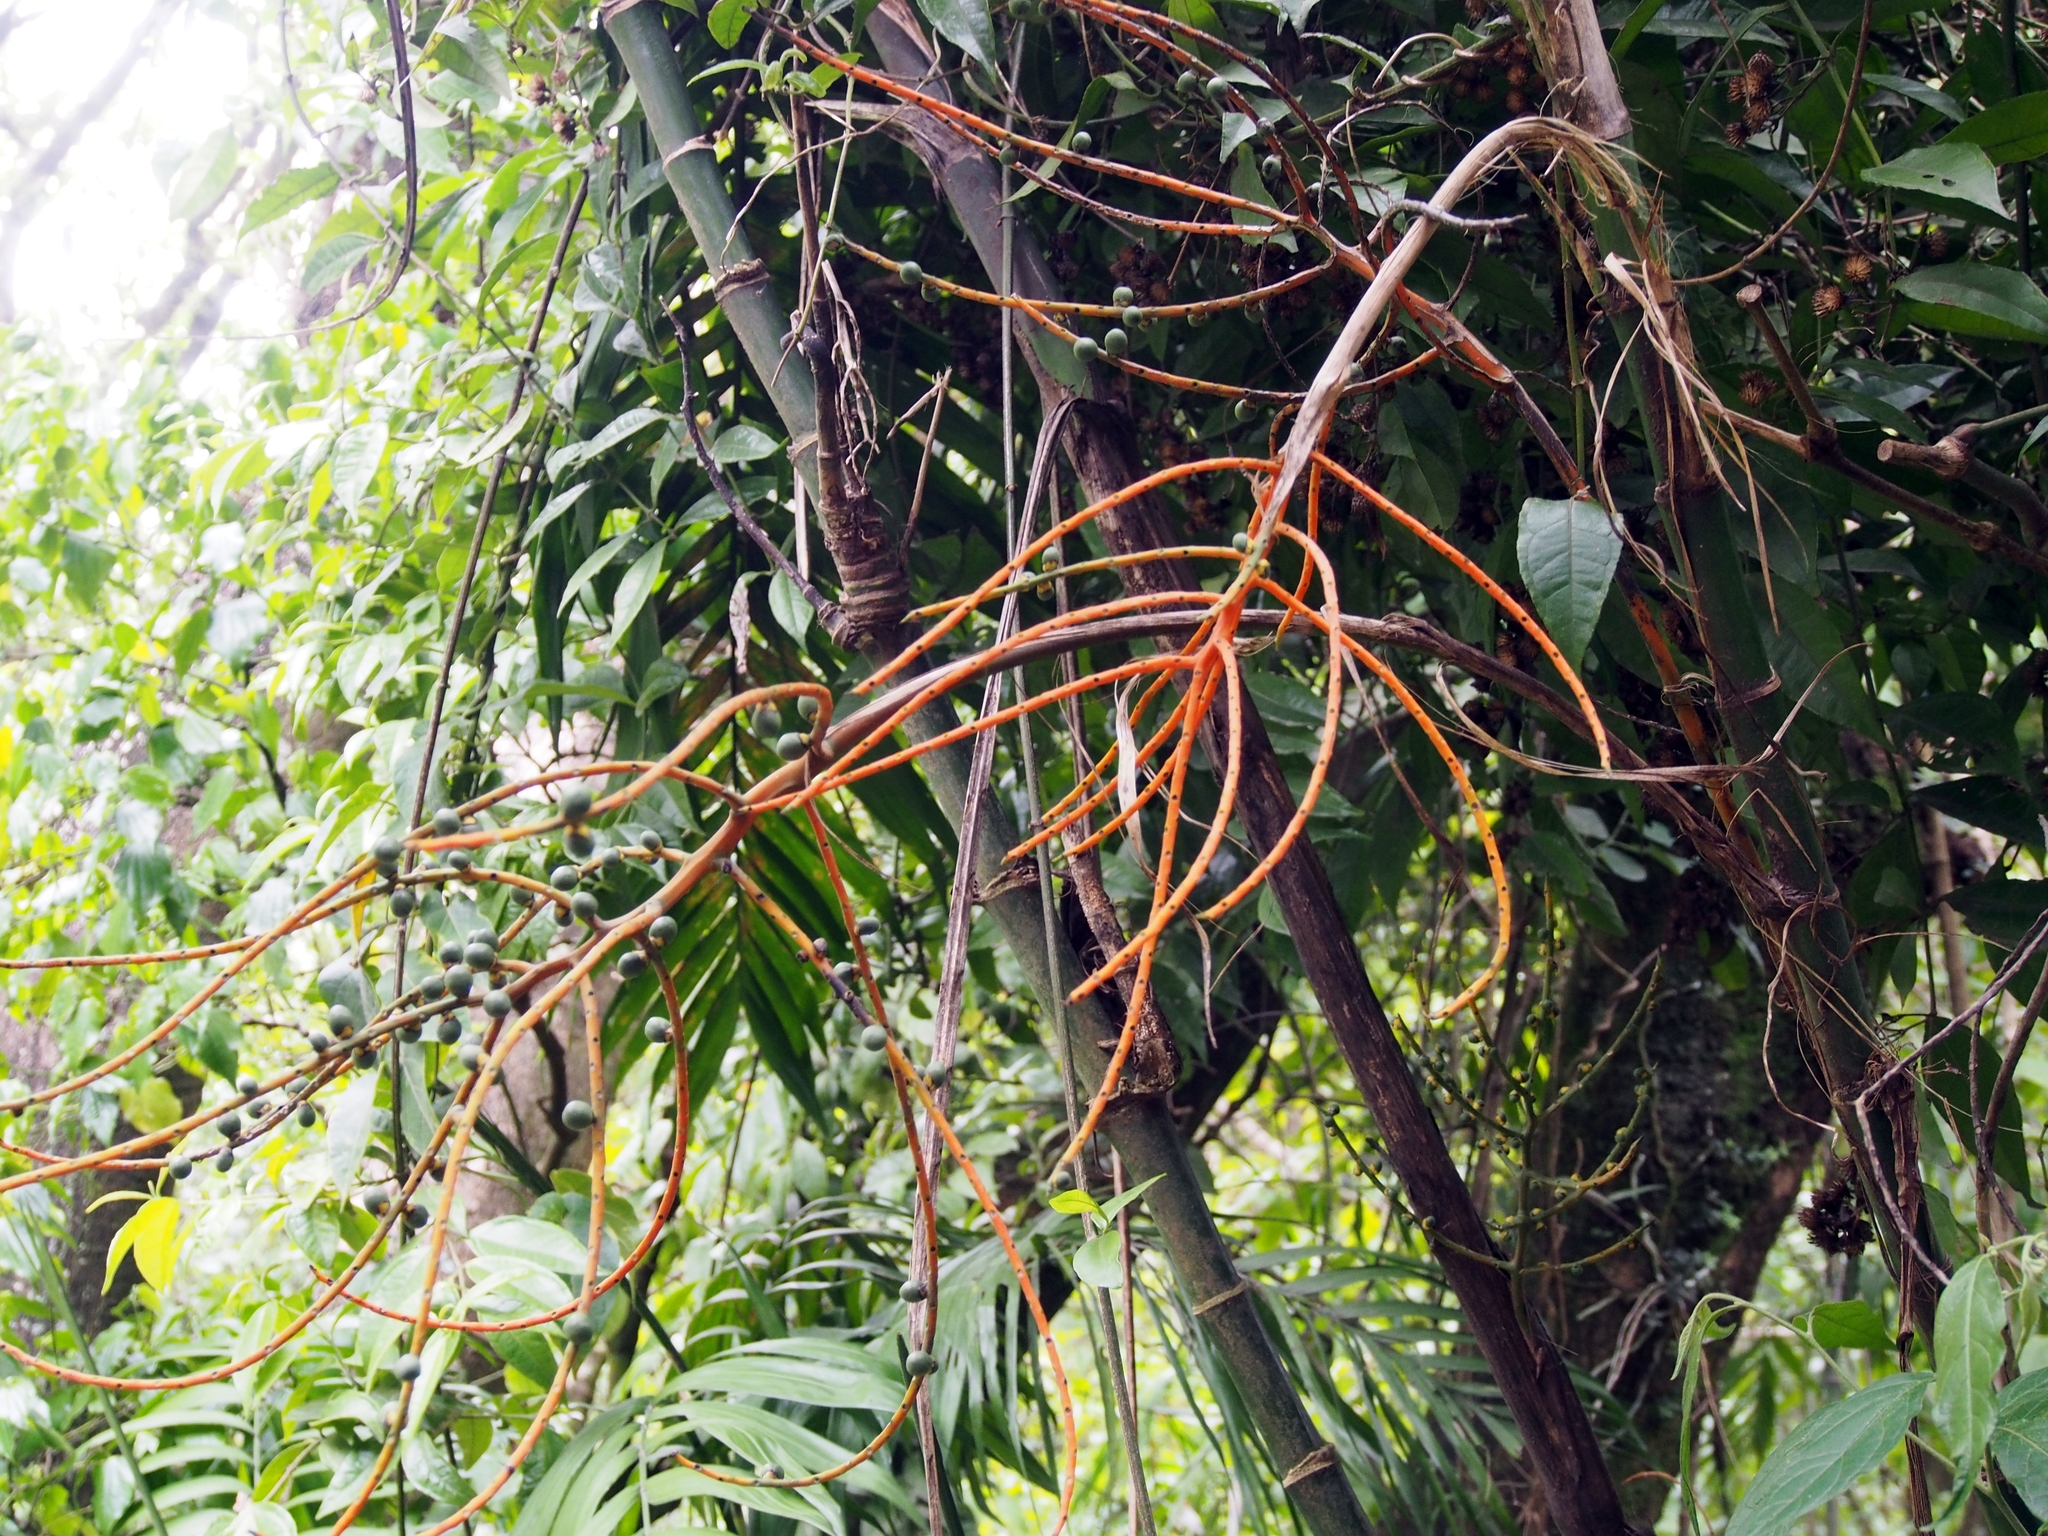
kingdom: Plantae
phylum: Tracheophyta
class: Liliopsida
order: Arecales
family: Arecaceae
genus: Chamaedorea
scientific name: Chamaedorea tepejilote
